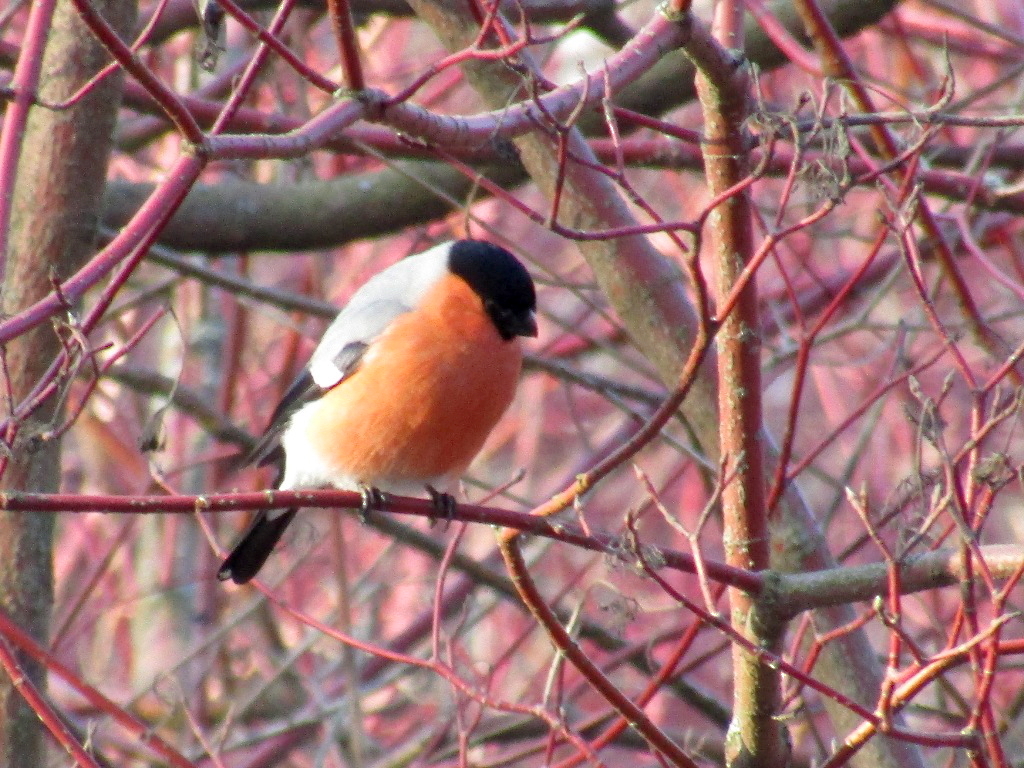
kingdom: Animalia
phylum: Chordata
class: Aves
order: Passeriformes
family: Fringillidae
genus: Pyrrhula
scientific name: Pyrrhula pyrrhula
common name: Eurasian bullfinch
